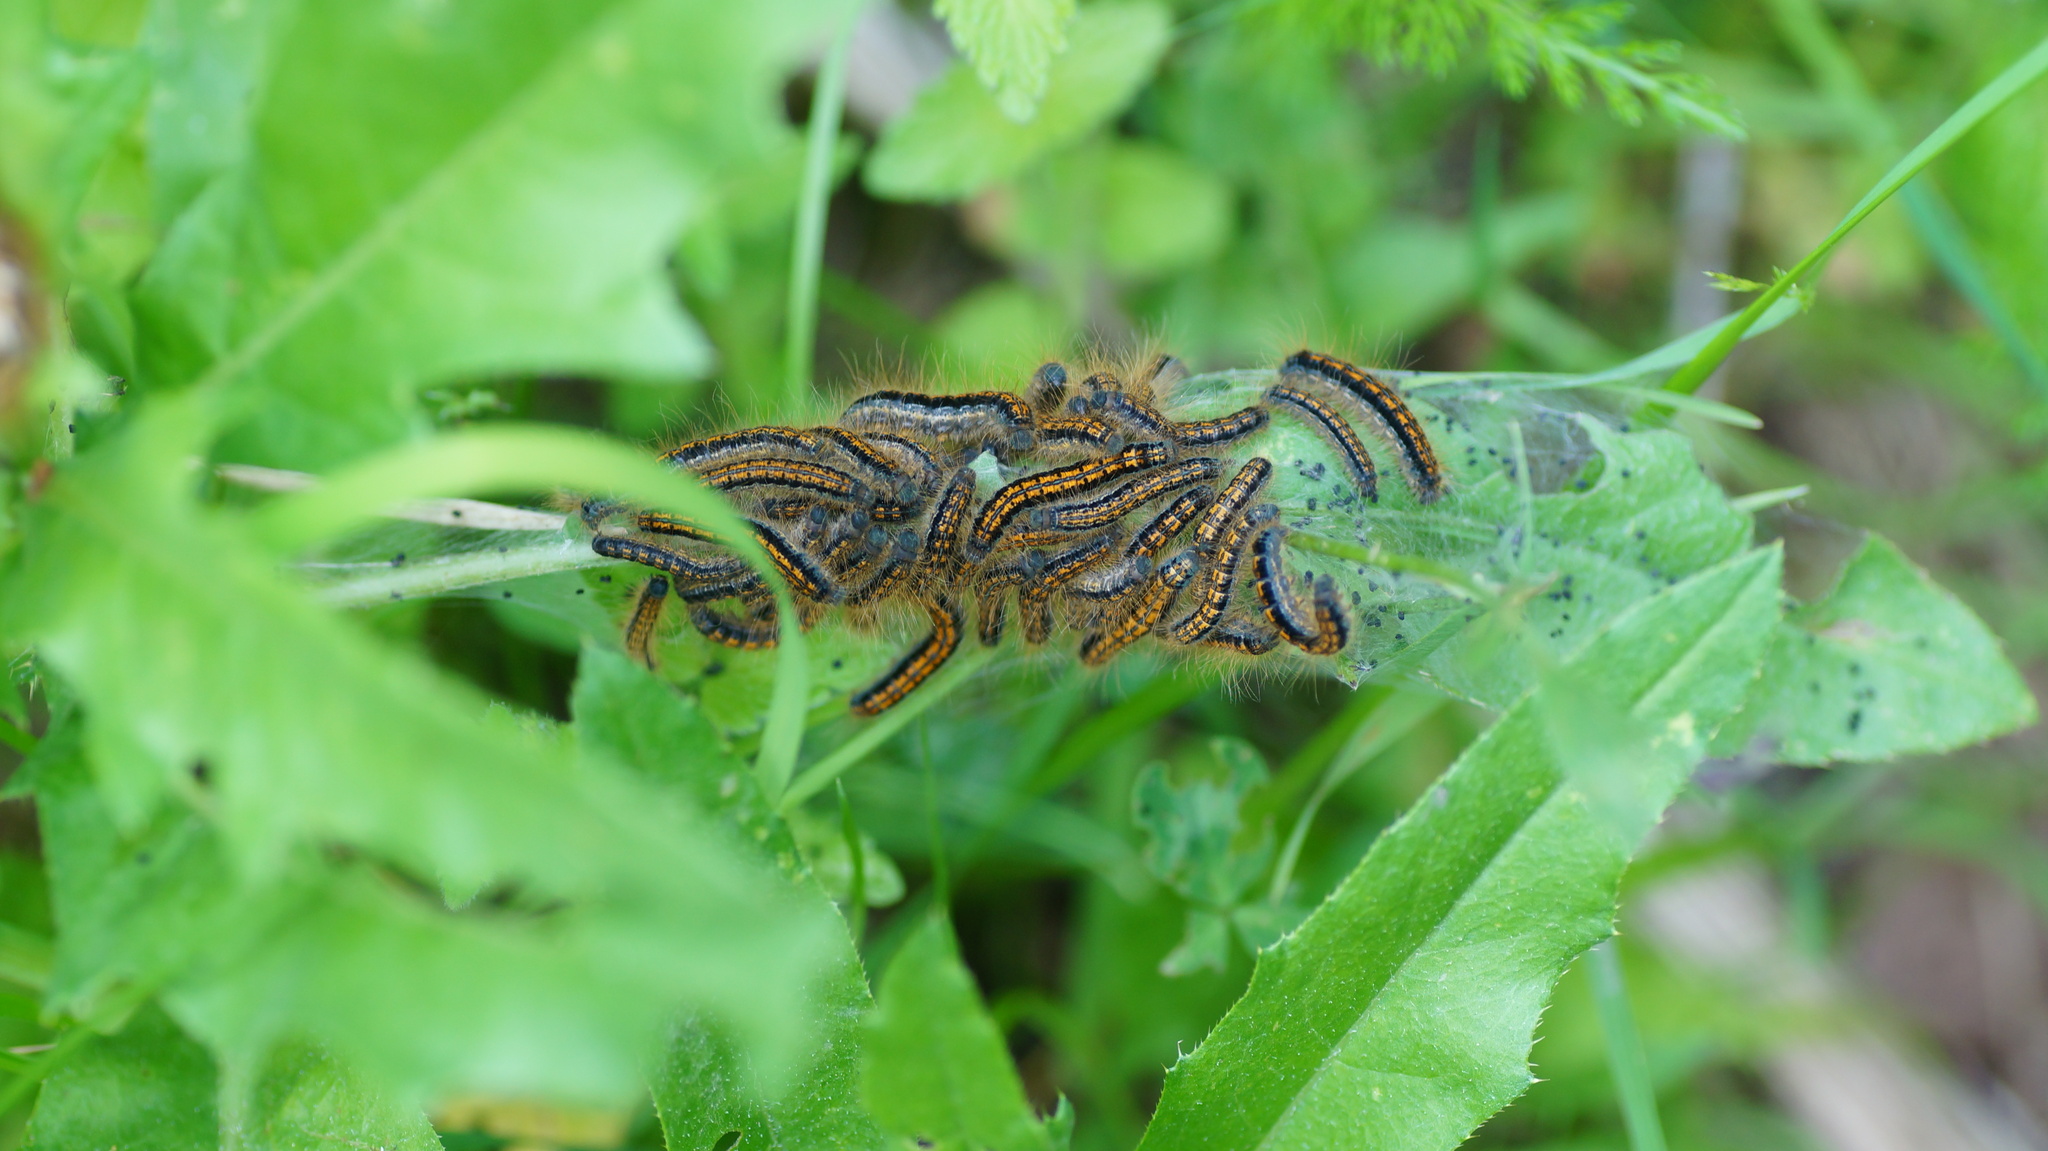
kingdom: Animalia
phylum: Arthropoda
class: Insecta
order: Lepidoptera
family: Lasiocampidae
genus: Malacosoma
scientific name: Malacosoma castrense
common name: Ground lackey
